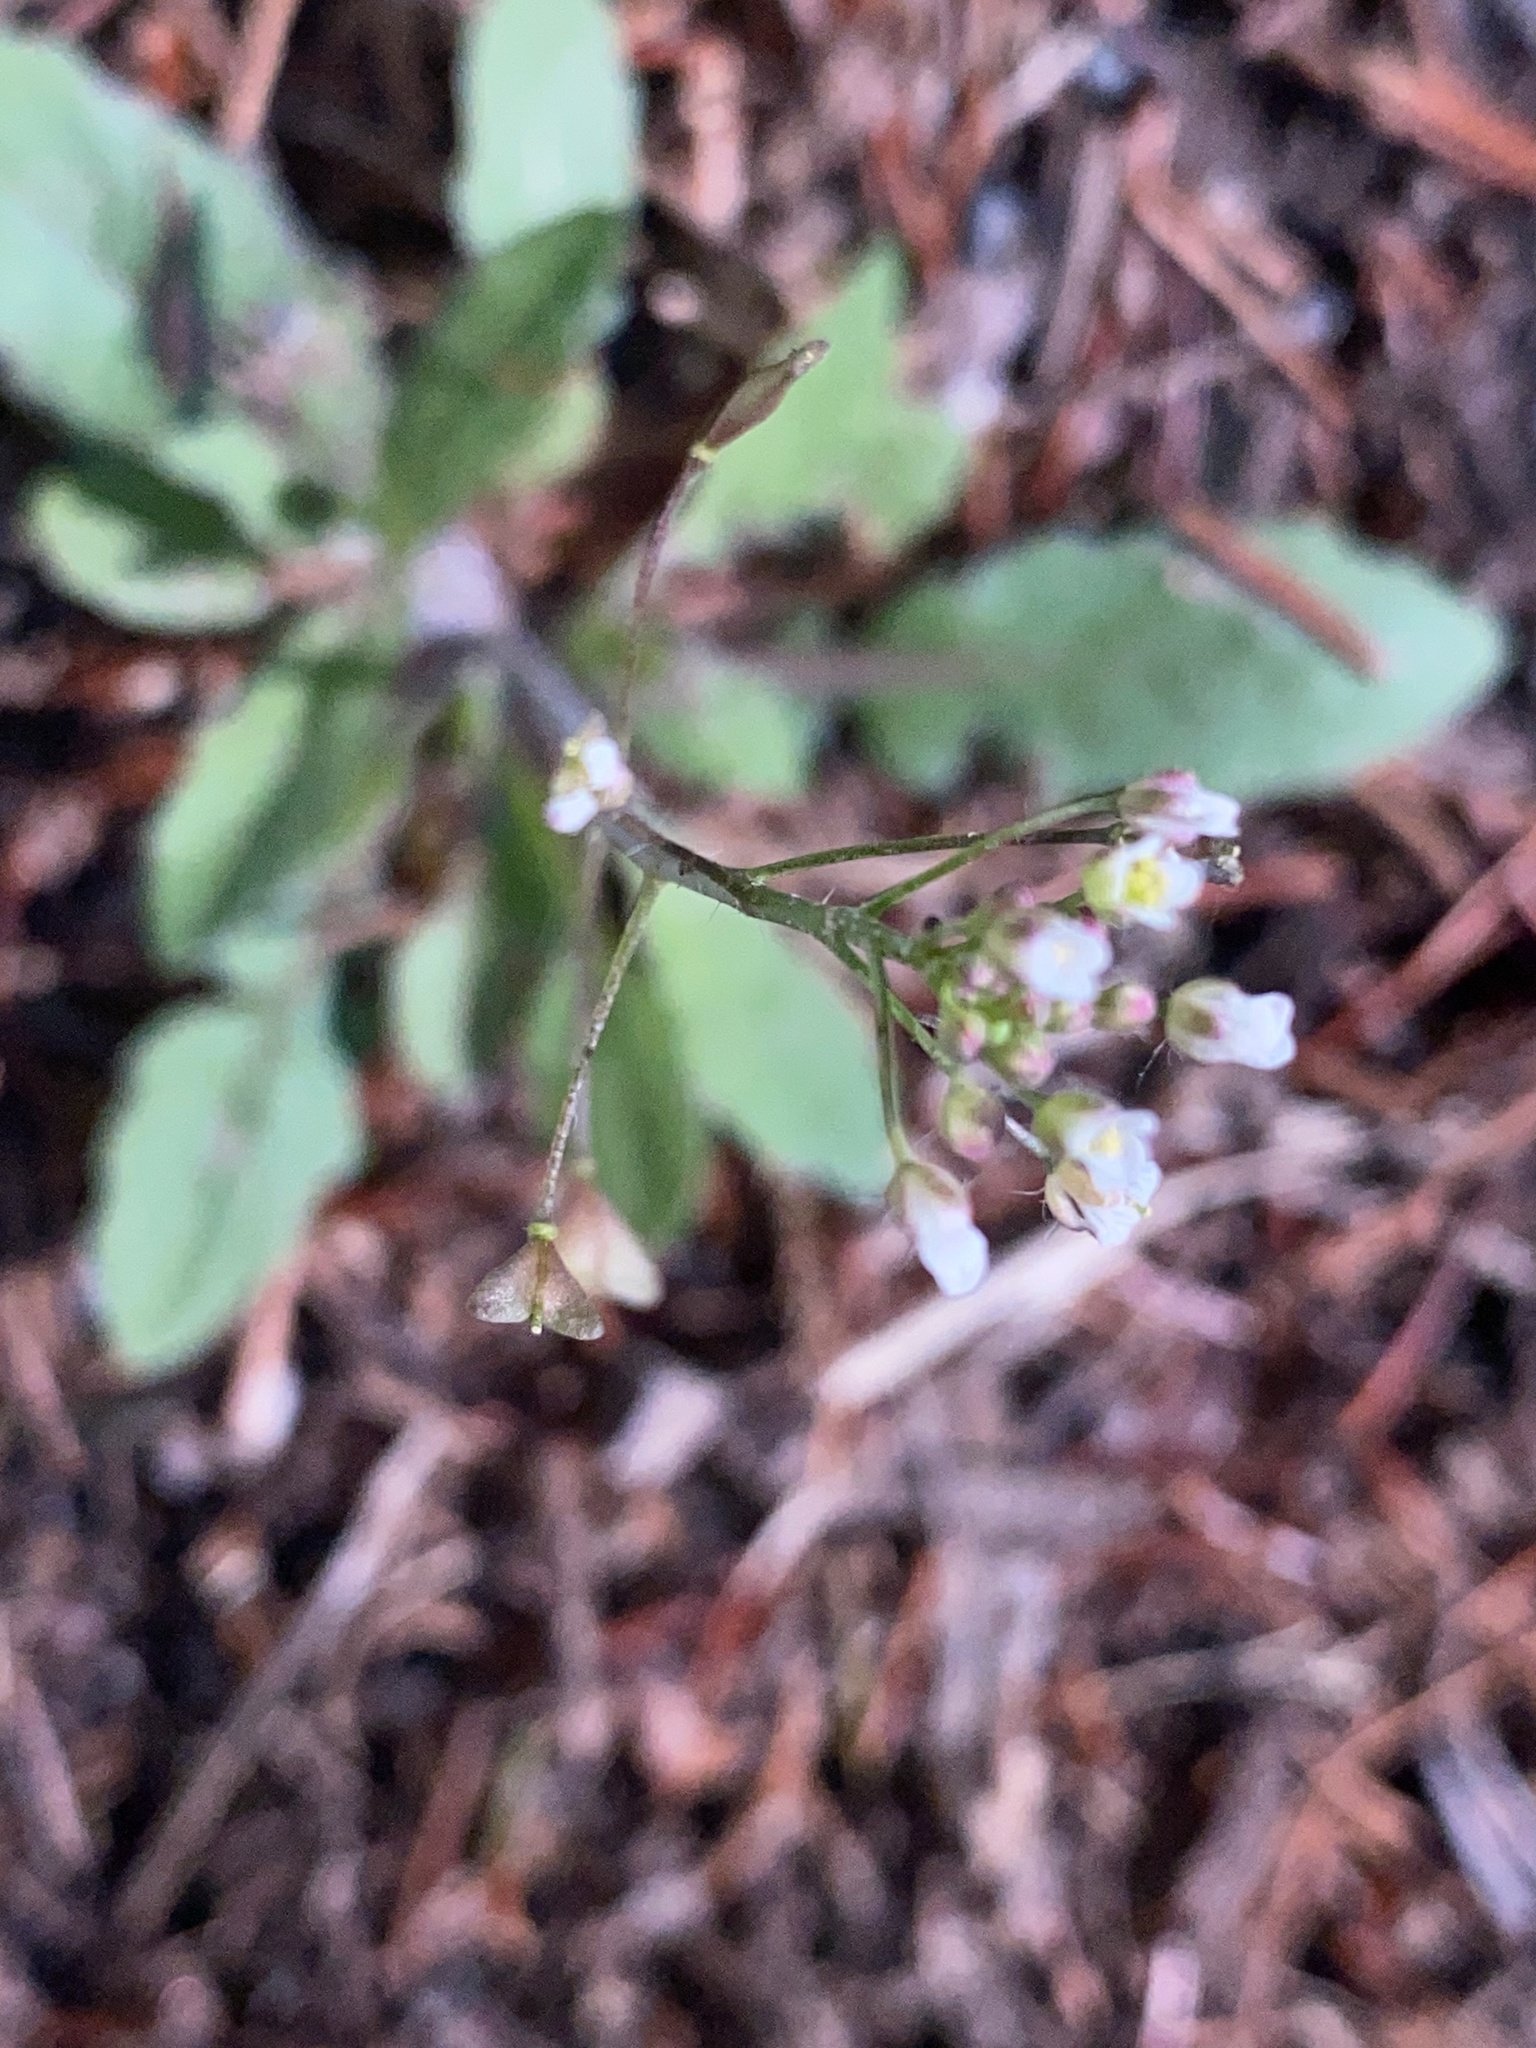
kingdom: Plantae
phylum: Tracheophyta
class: Magnoliopsida
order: Brassicales
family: Brassicaceae
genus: Capsella
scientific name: Capsella bursa-pastoris
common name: Shepherd's purse
